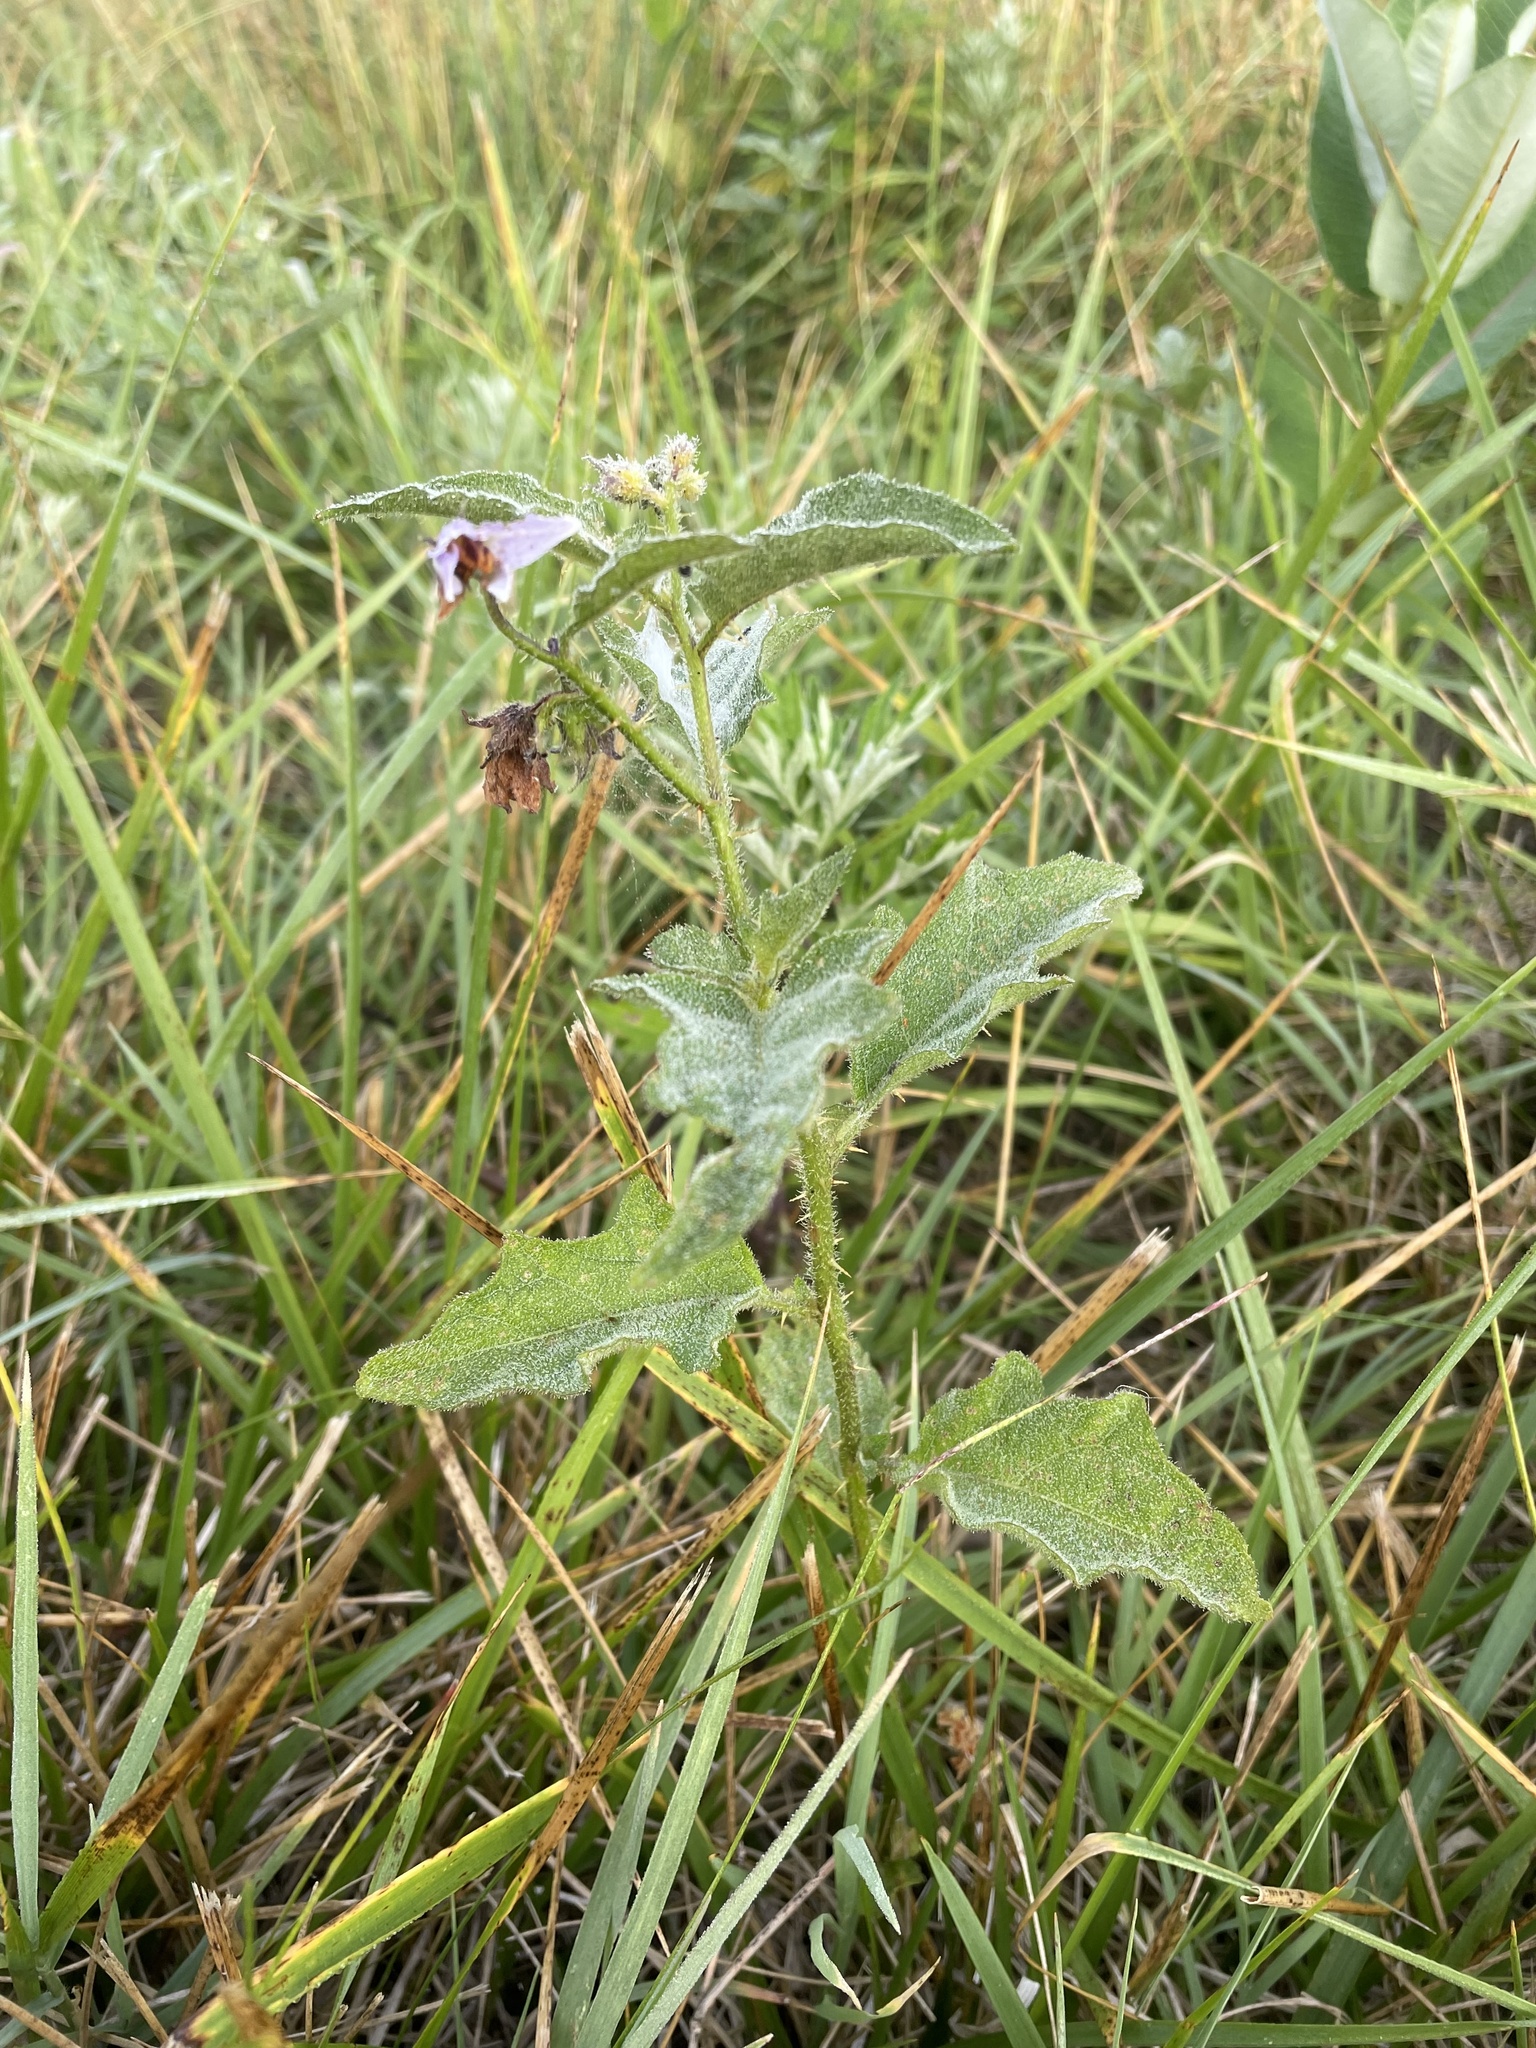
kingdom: Plantae
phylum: Tracheophyta
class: Magnoliopsida
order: Solanales
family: Solanaceae
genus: Solanum
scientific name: Solanum carolinense
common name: Horse-nettle
